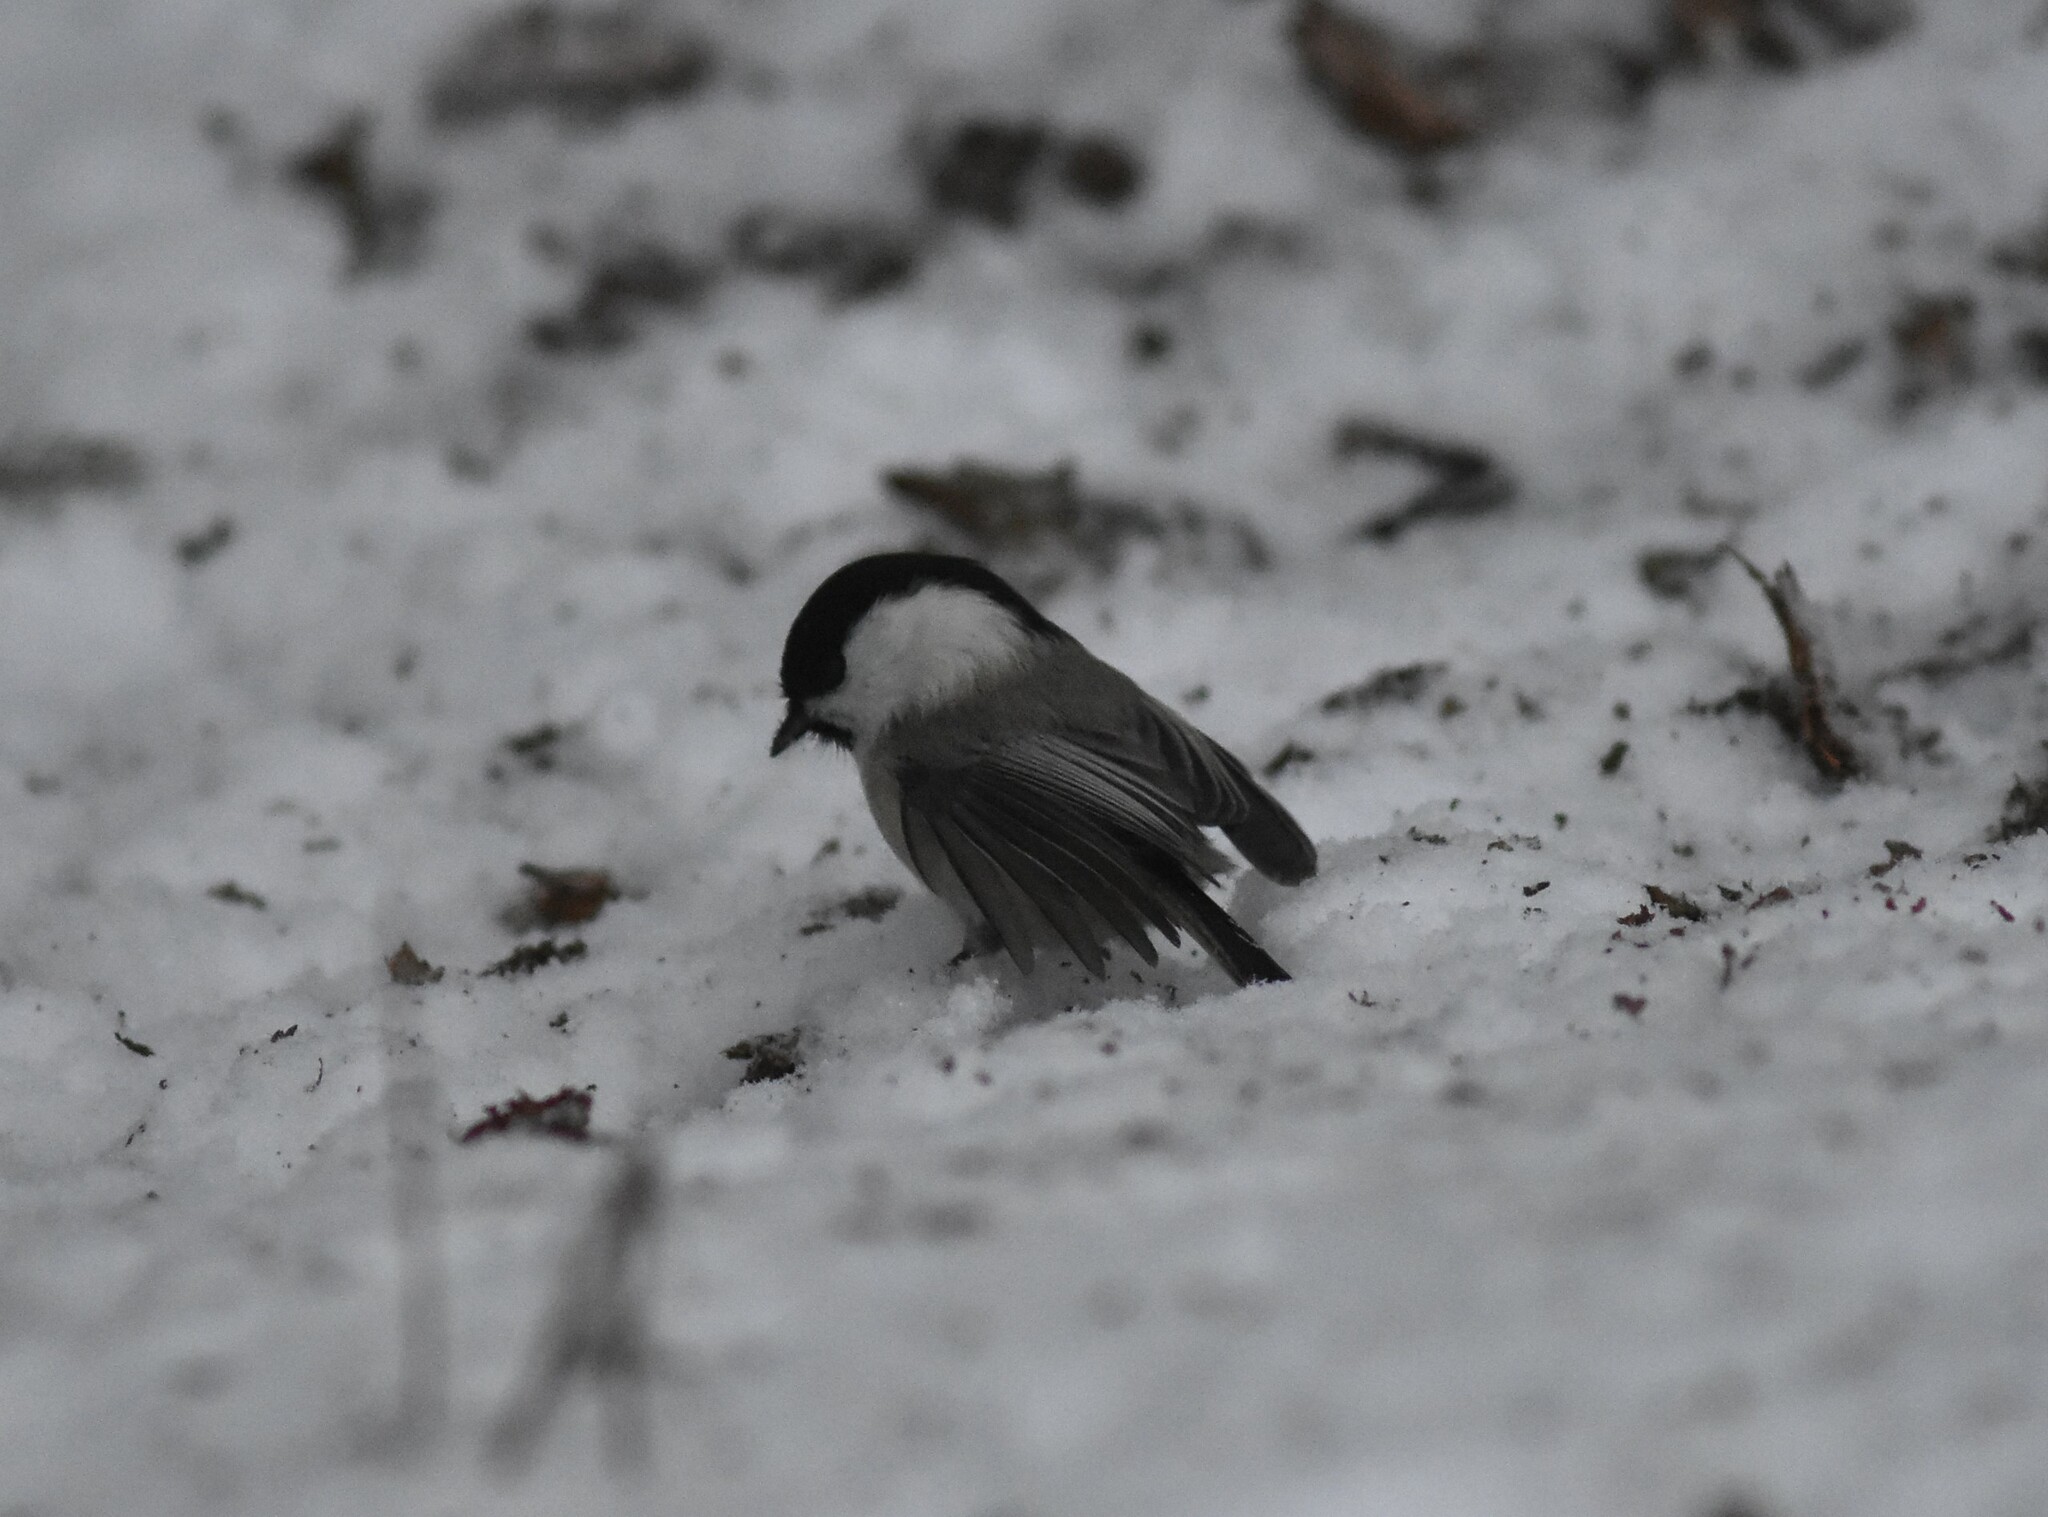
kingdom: Animalia
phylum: Chordata
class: Aves
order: Passeriformes
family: Paridae
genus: Poecile
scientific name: Poecile montanus
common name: Willow tit
